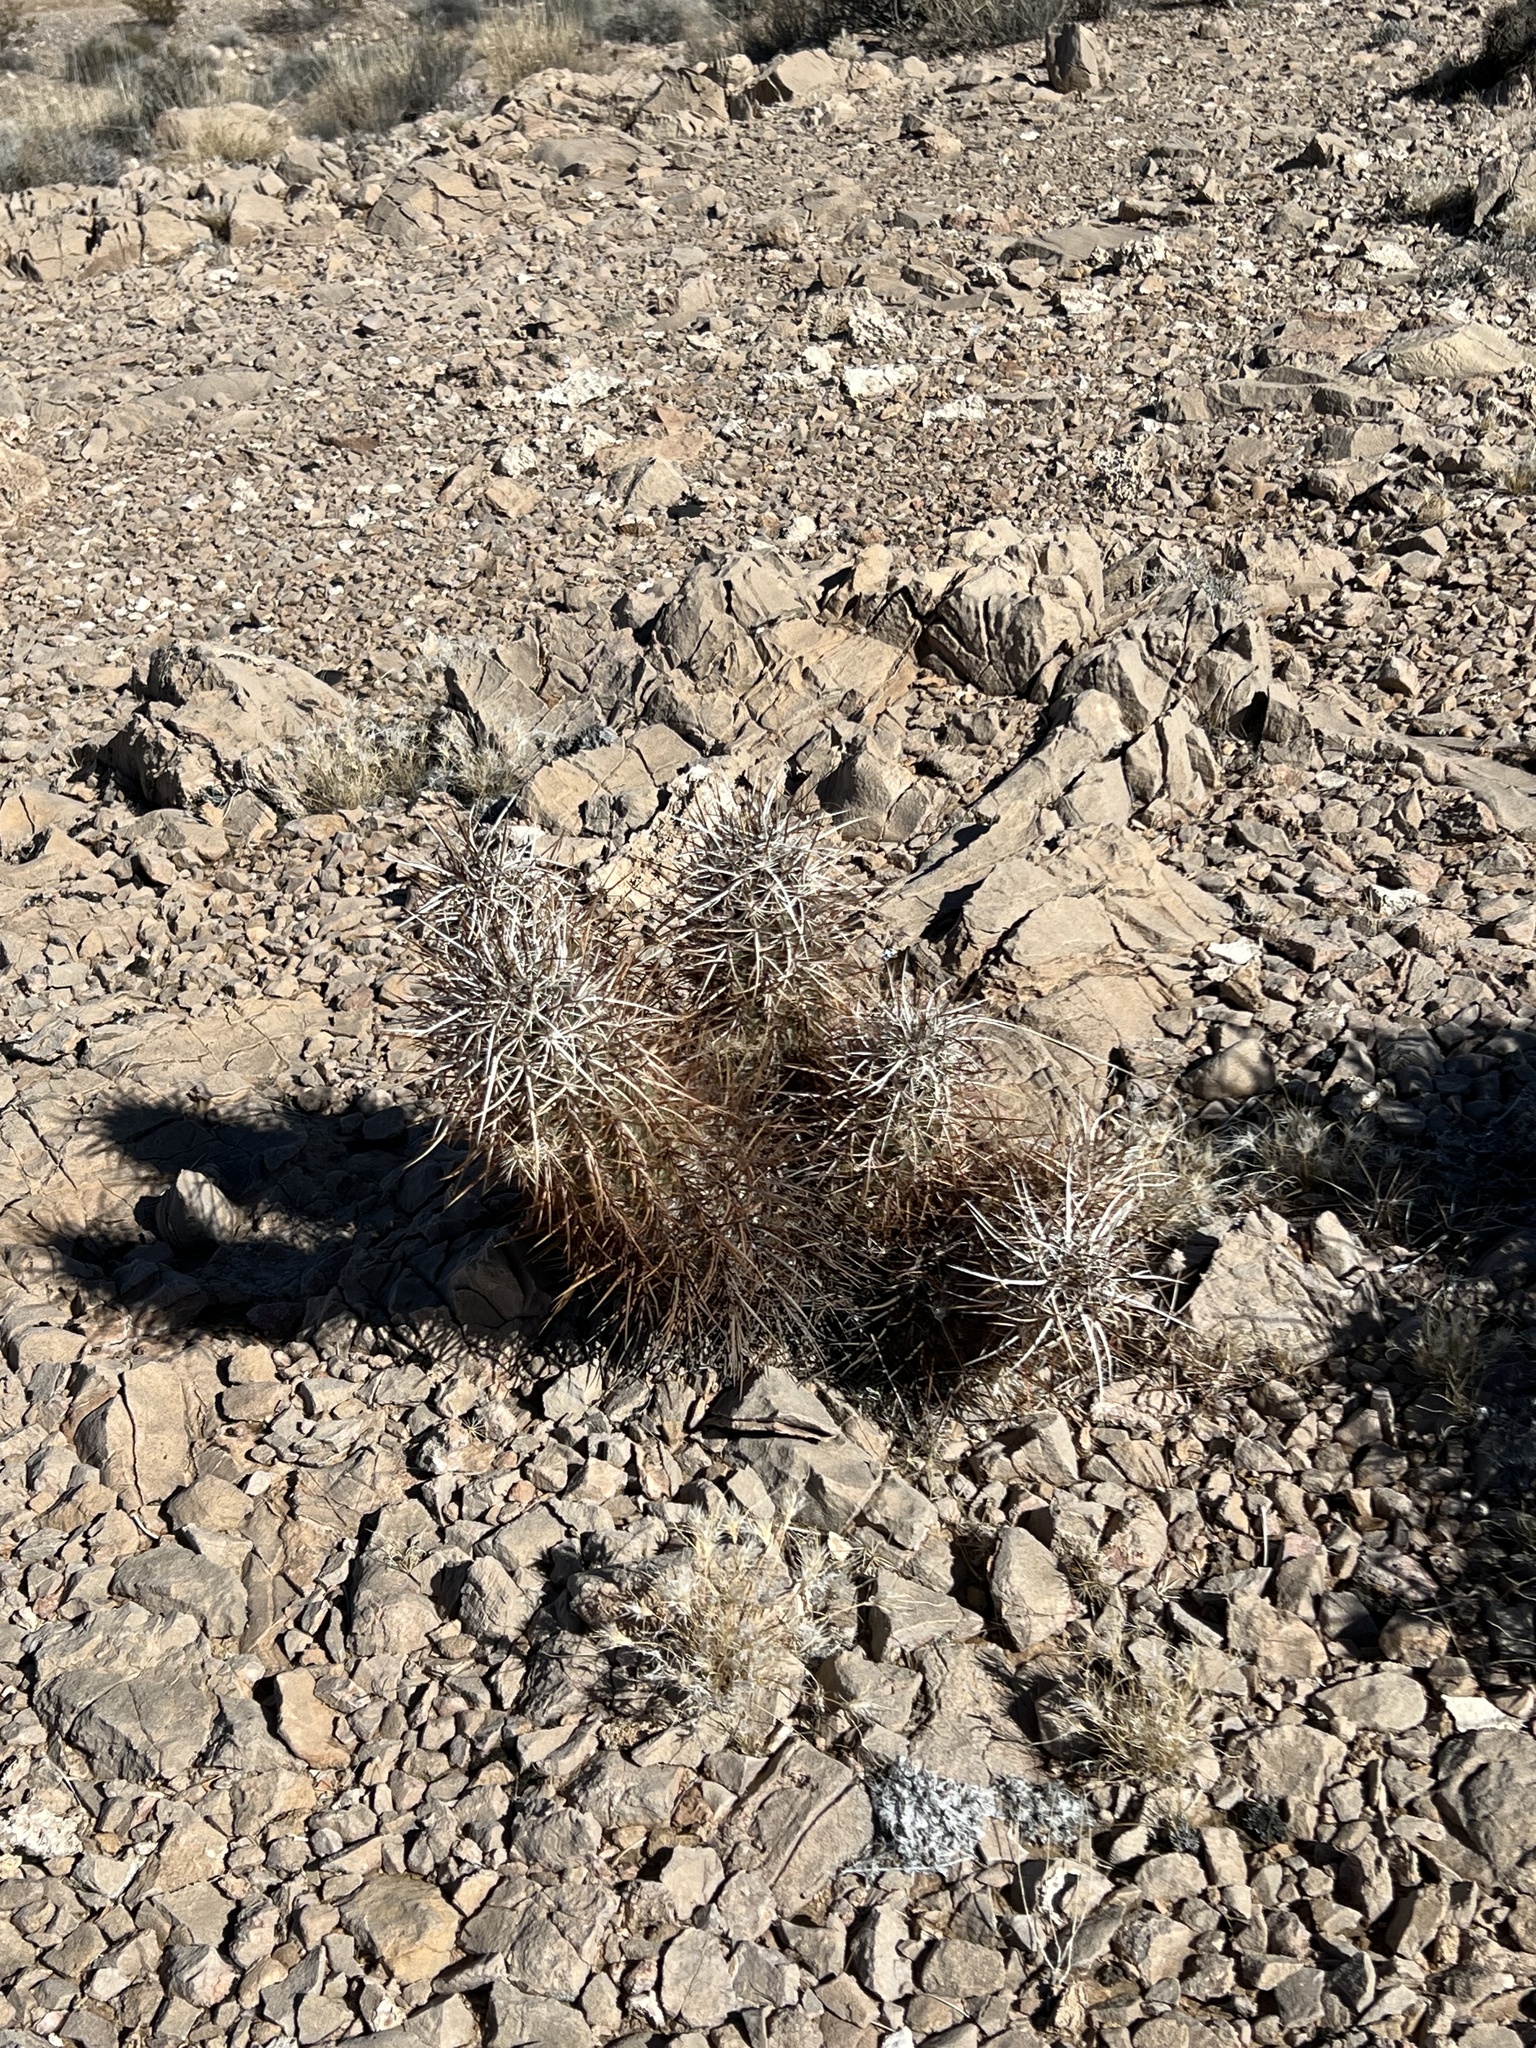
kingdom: Plantae
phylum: Tracheophyta
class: Magnoliopsida
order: Caryophyllales
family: Cactaceae
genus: Echinocereus
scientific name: Echinocereus engelmannii
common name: Engelmann's hedgehog cactus
